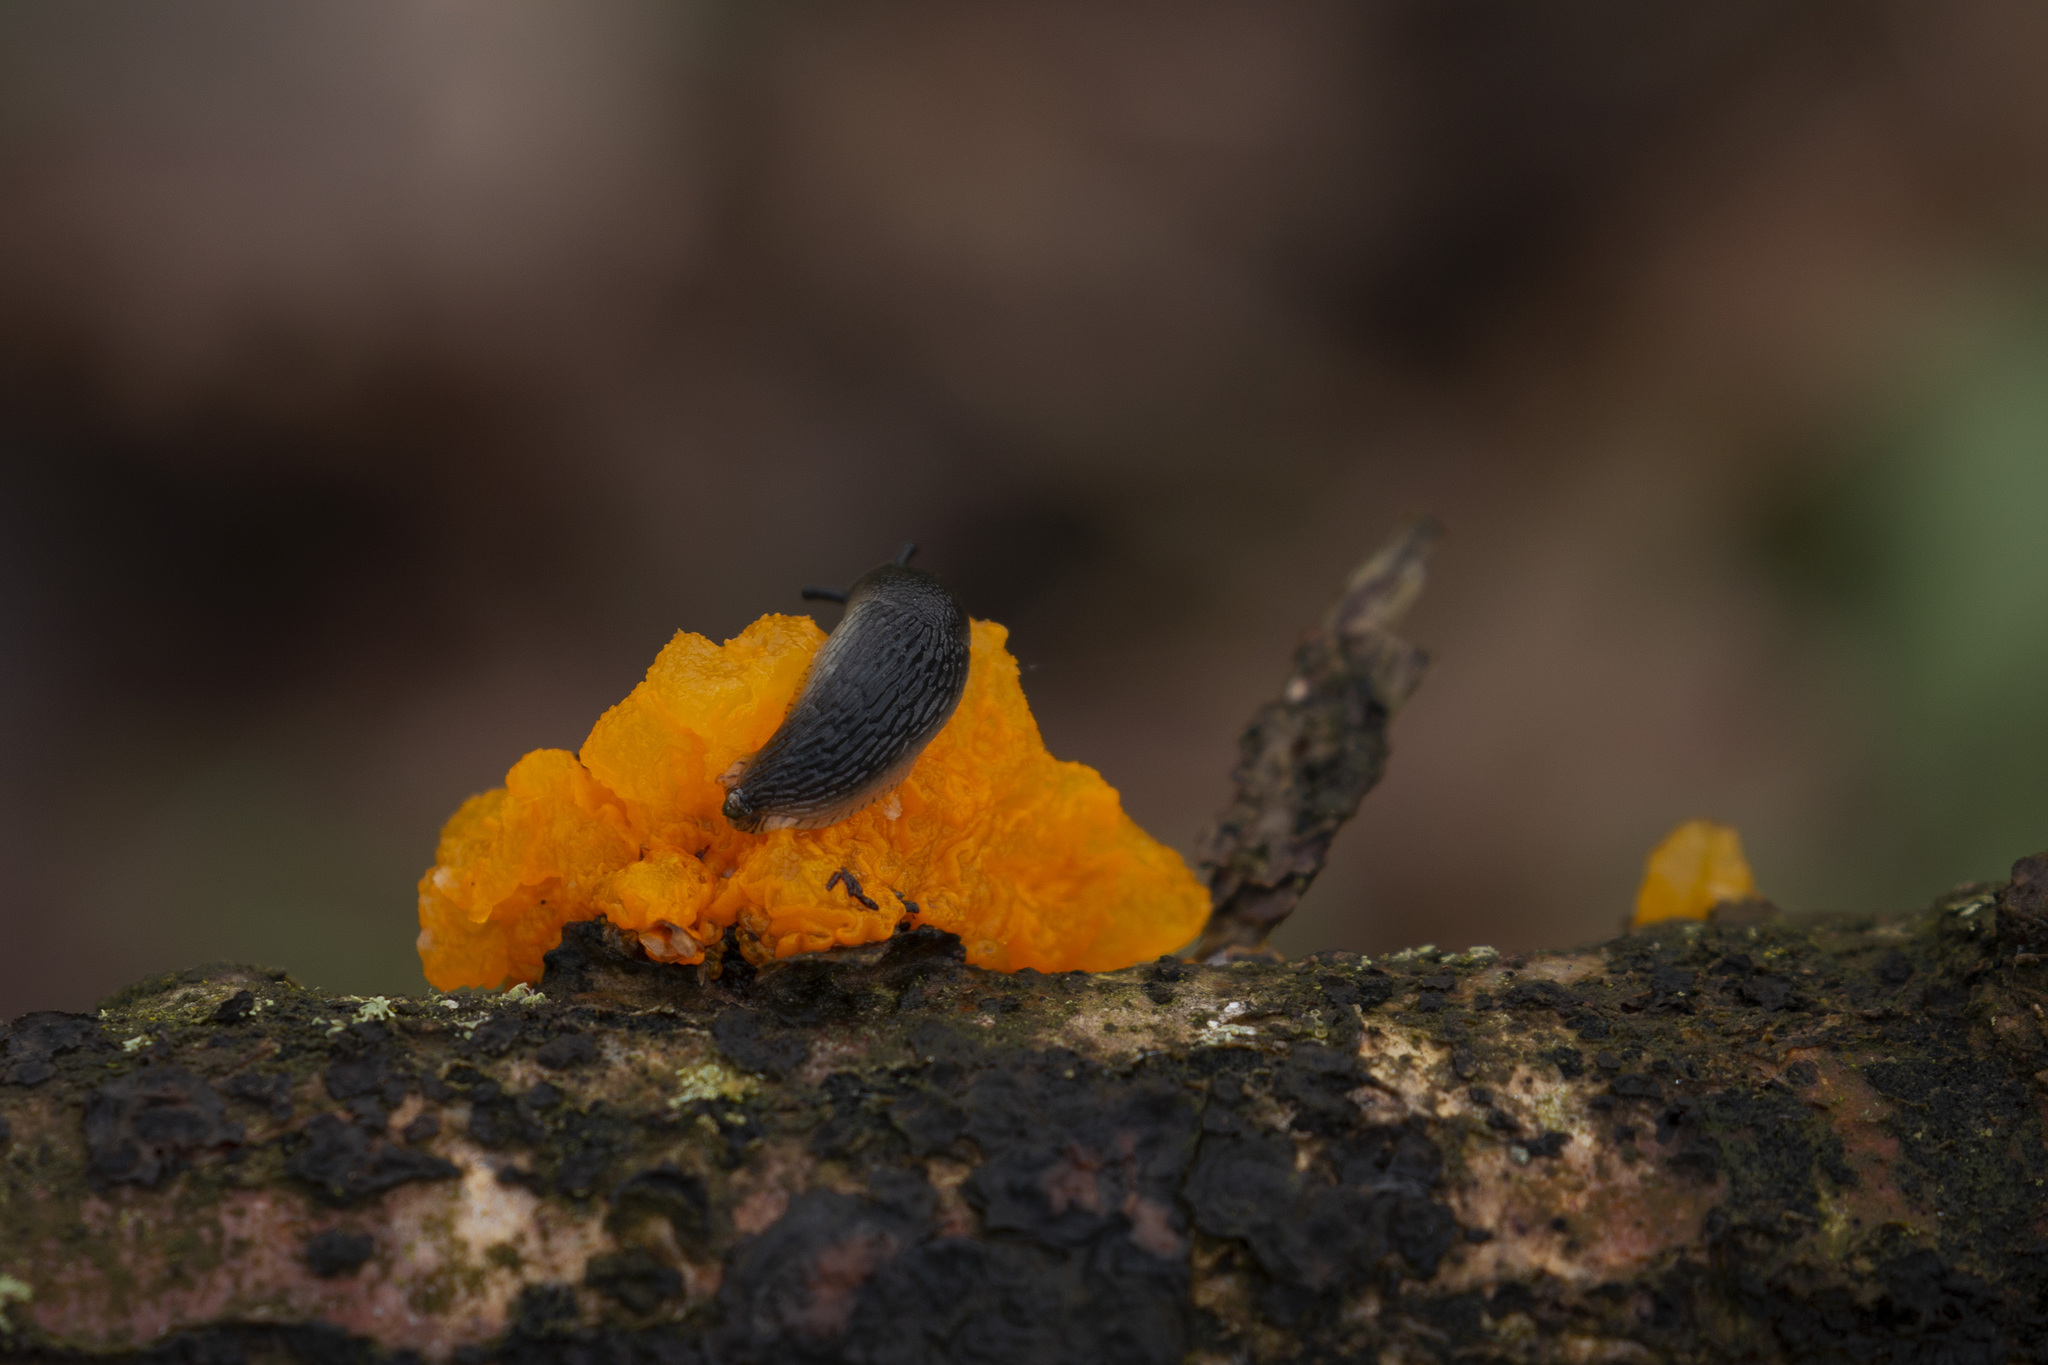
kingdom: Fungi
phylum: Basidiomycota
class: Tremellomycetes
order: Tremellales
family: Tremellaceae
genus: Tremella
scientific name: Tremella mesenterica
